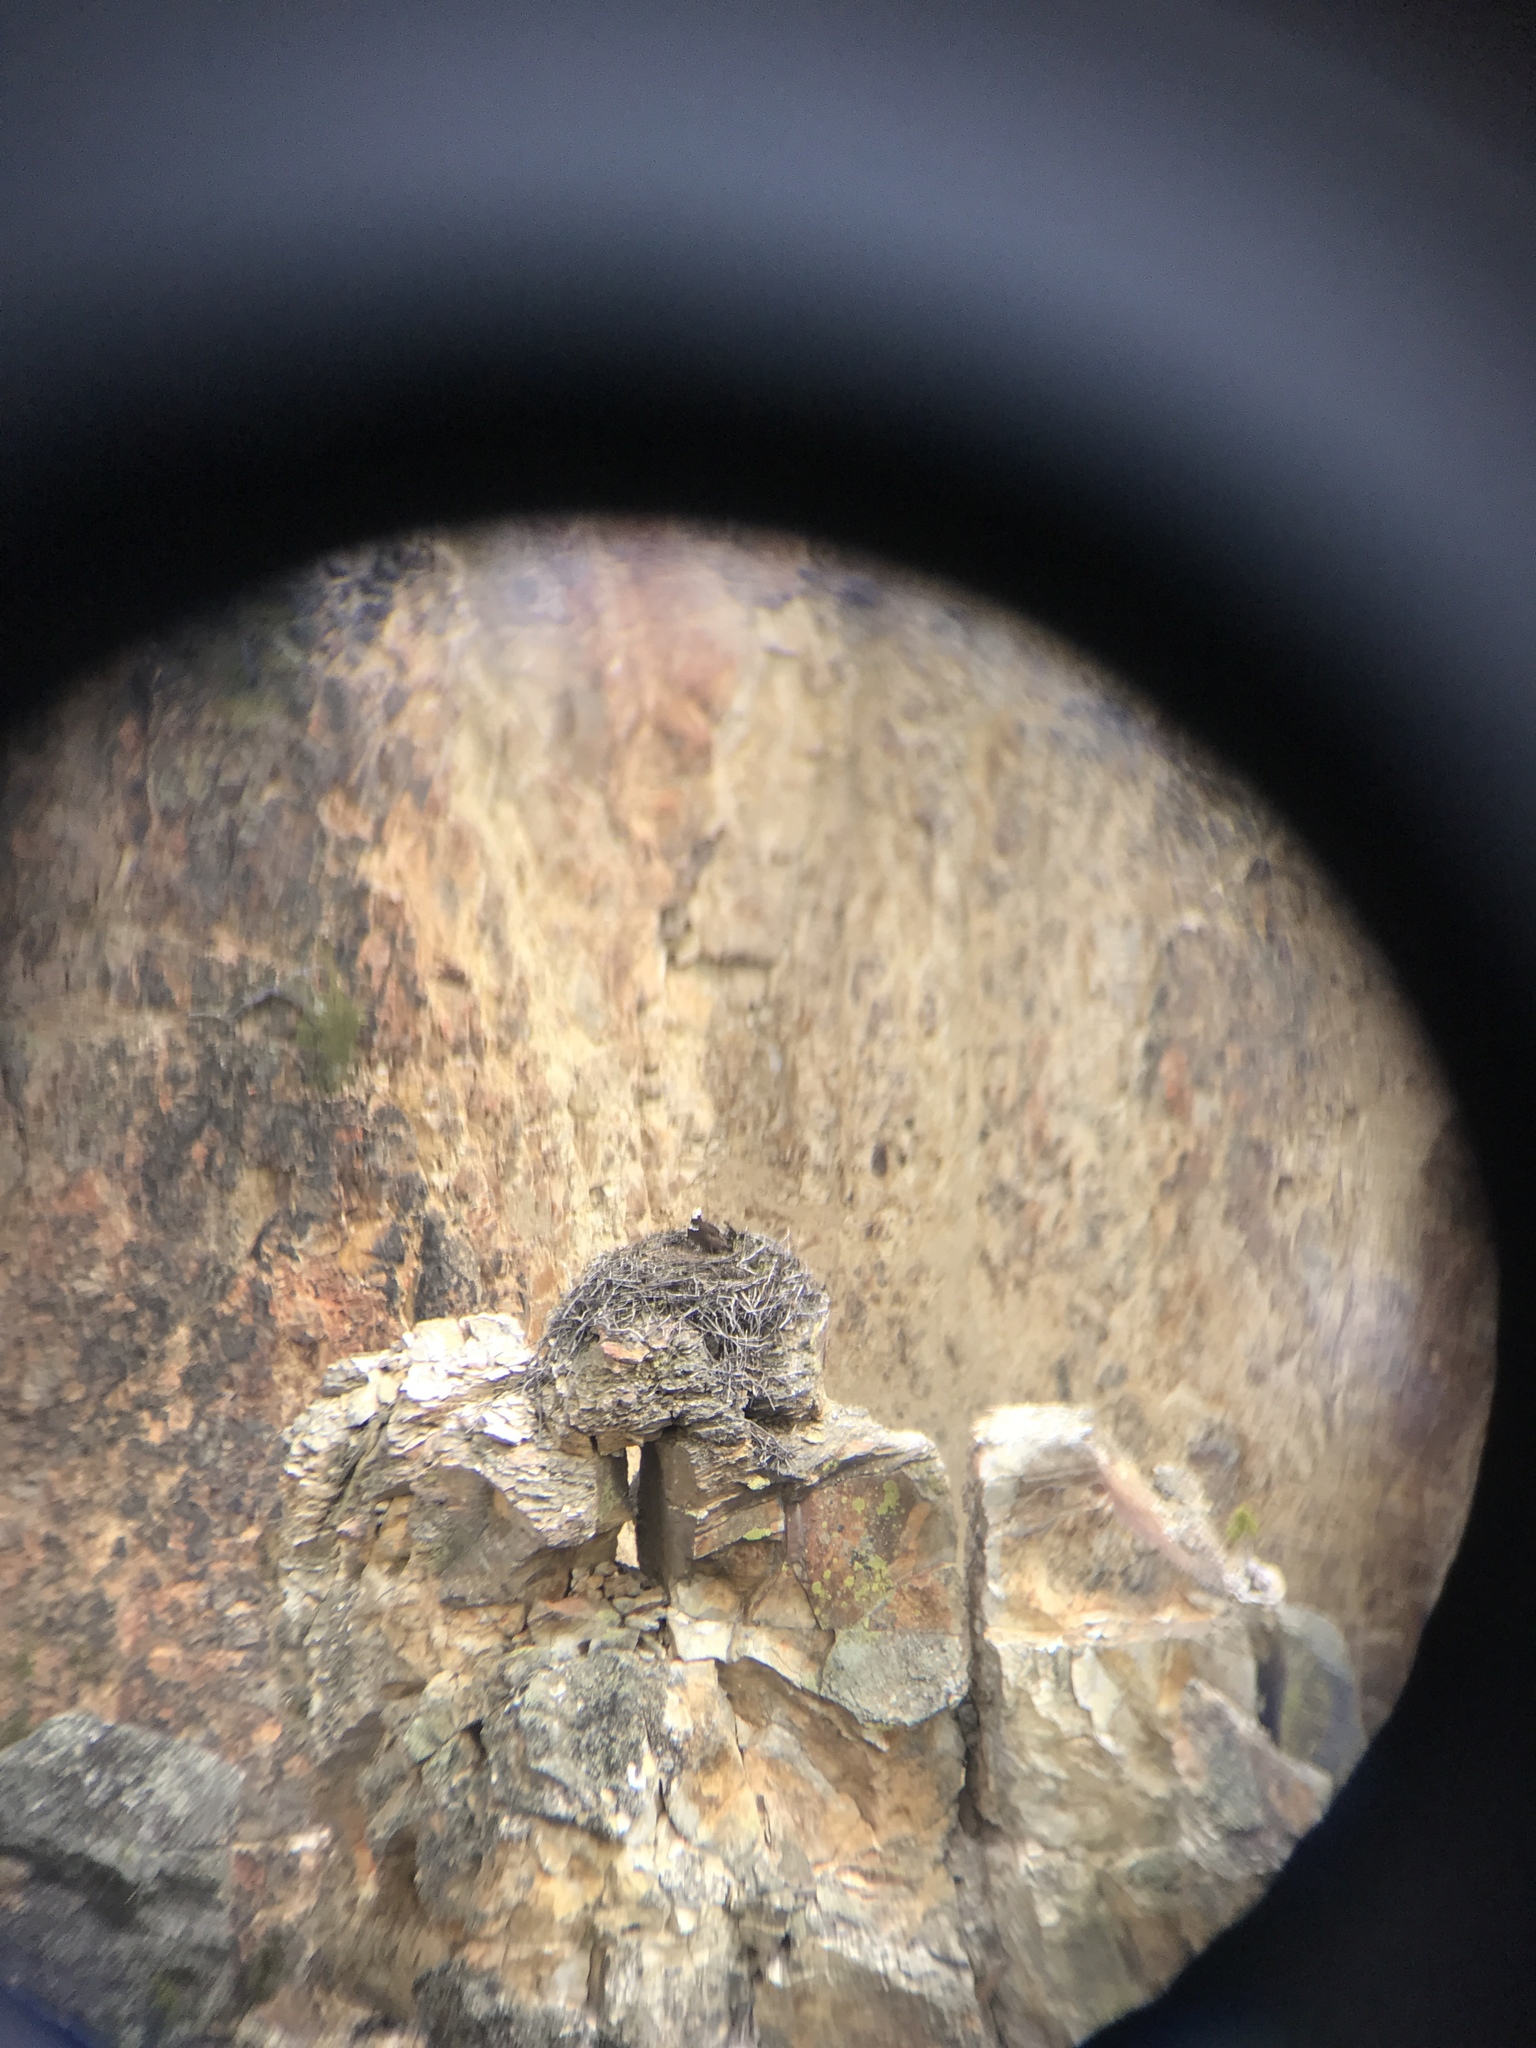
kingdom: Animalia
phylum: Chordata
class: Aves
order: Accipitriformes
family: Pandionidae
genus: Pandion
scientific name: Pandion haliaetus
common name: Osprey
